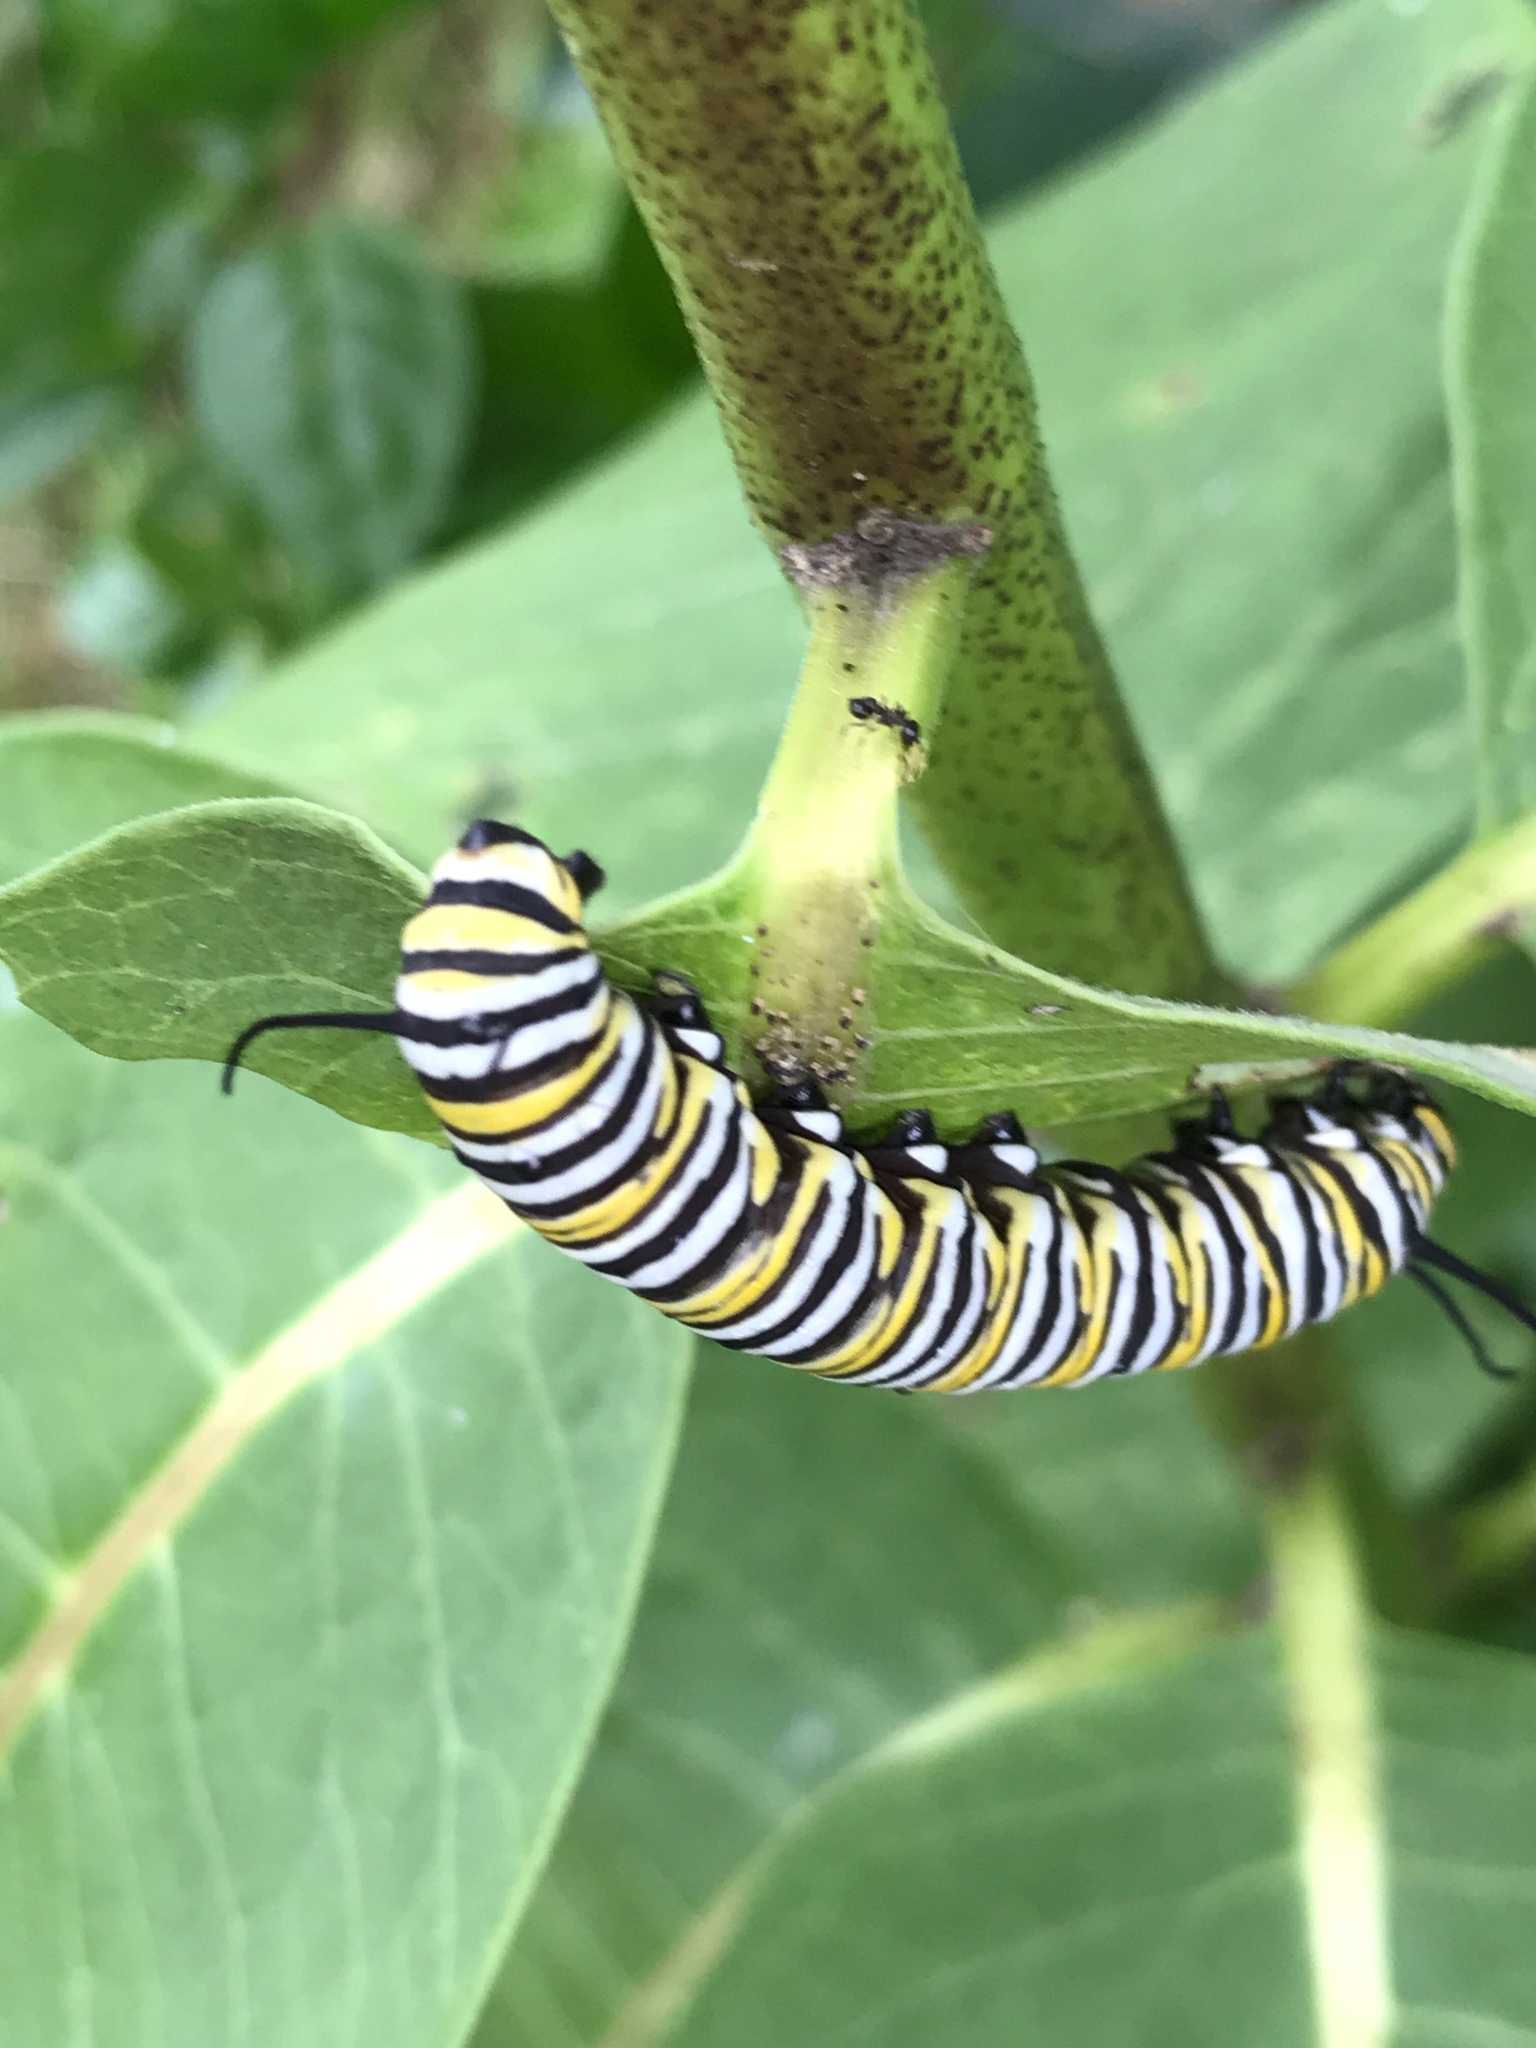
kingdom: Animalia
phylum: Arthropoda
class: Insecta
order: Lepidoptera
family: Nymphalidae
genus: Danaus
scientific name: Danaus plexippus
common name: Monarch
